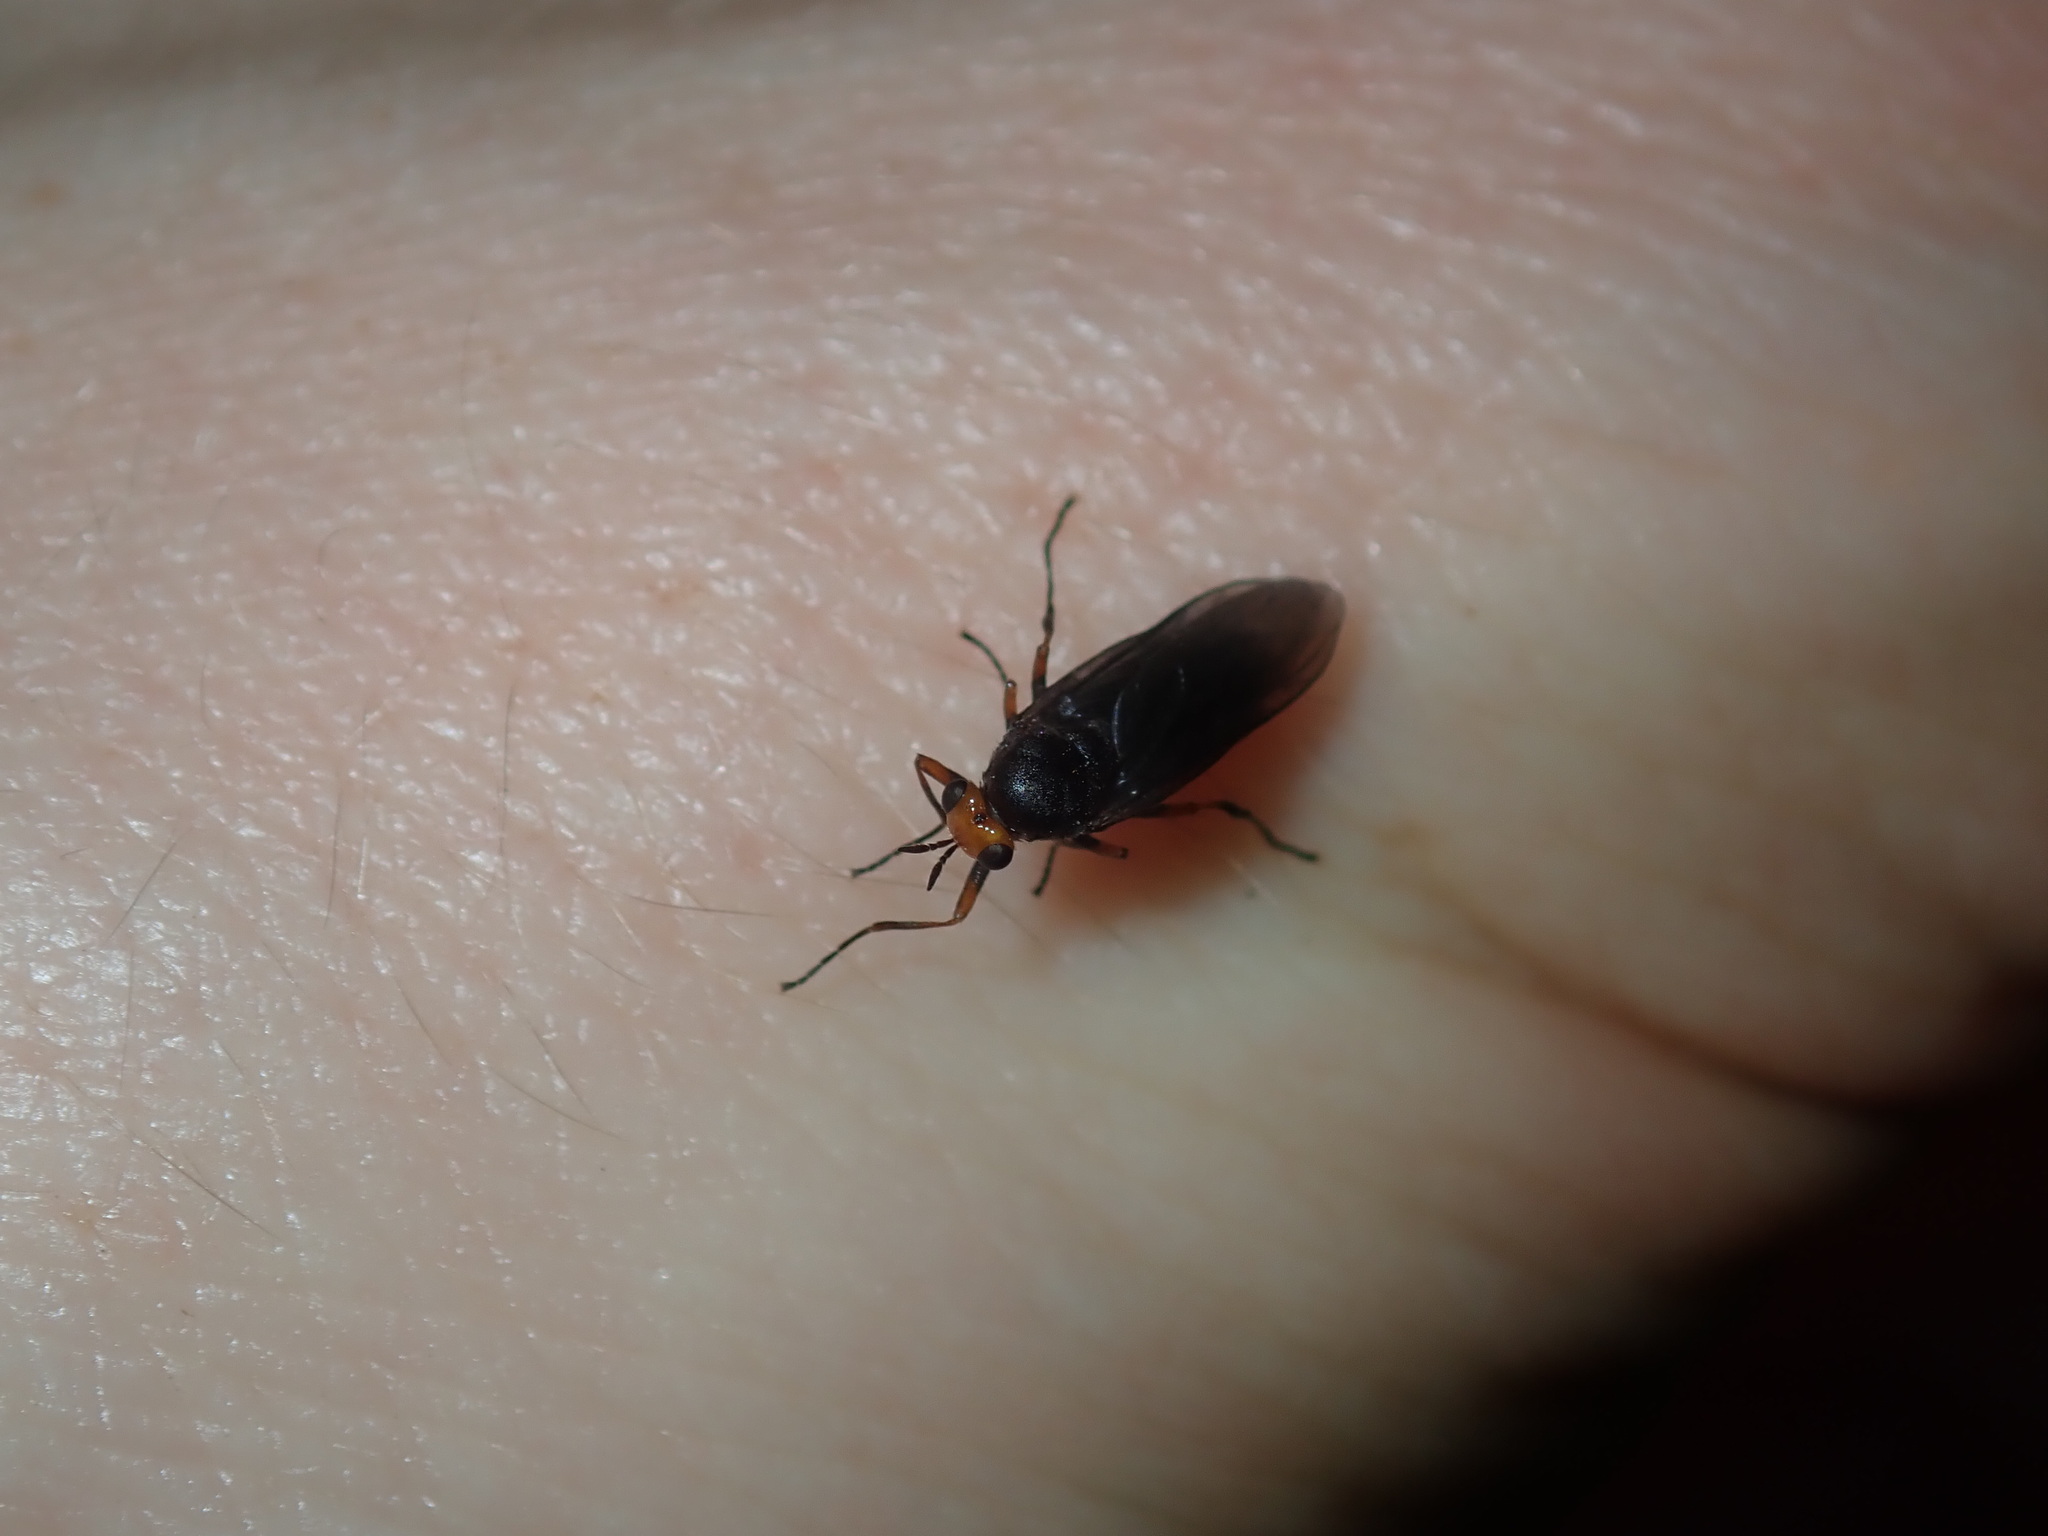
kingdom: Animalia
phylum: Arthropoda
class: Insecta
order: Diptera
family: Stratiomyidae
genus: Inopus
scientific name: Inopus rubriceps
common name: Soldier fly
